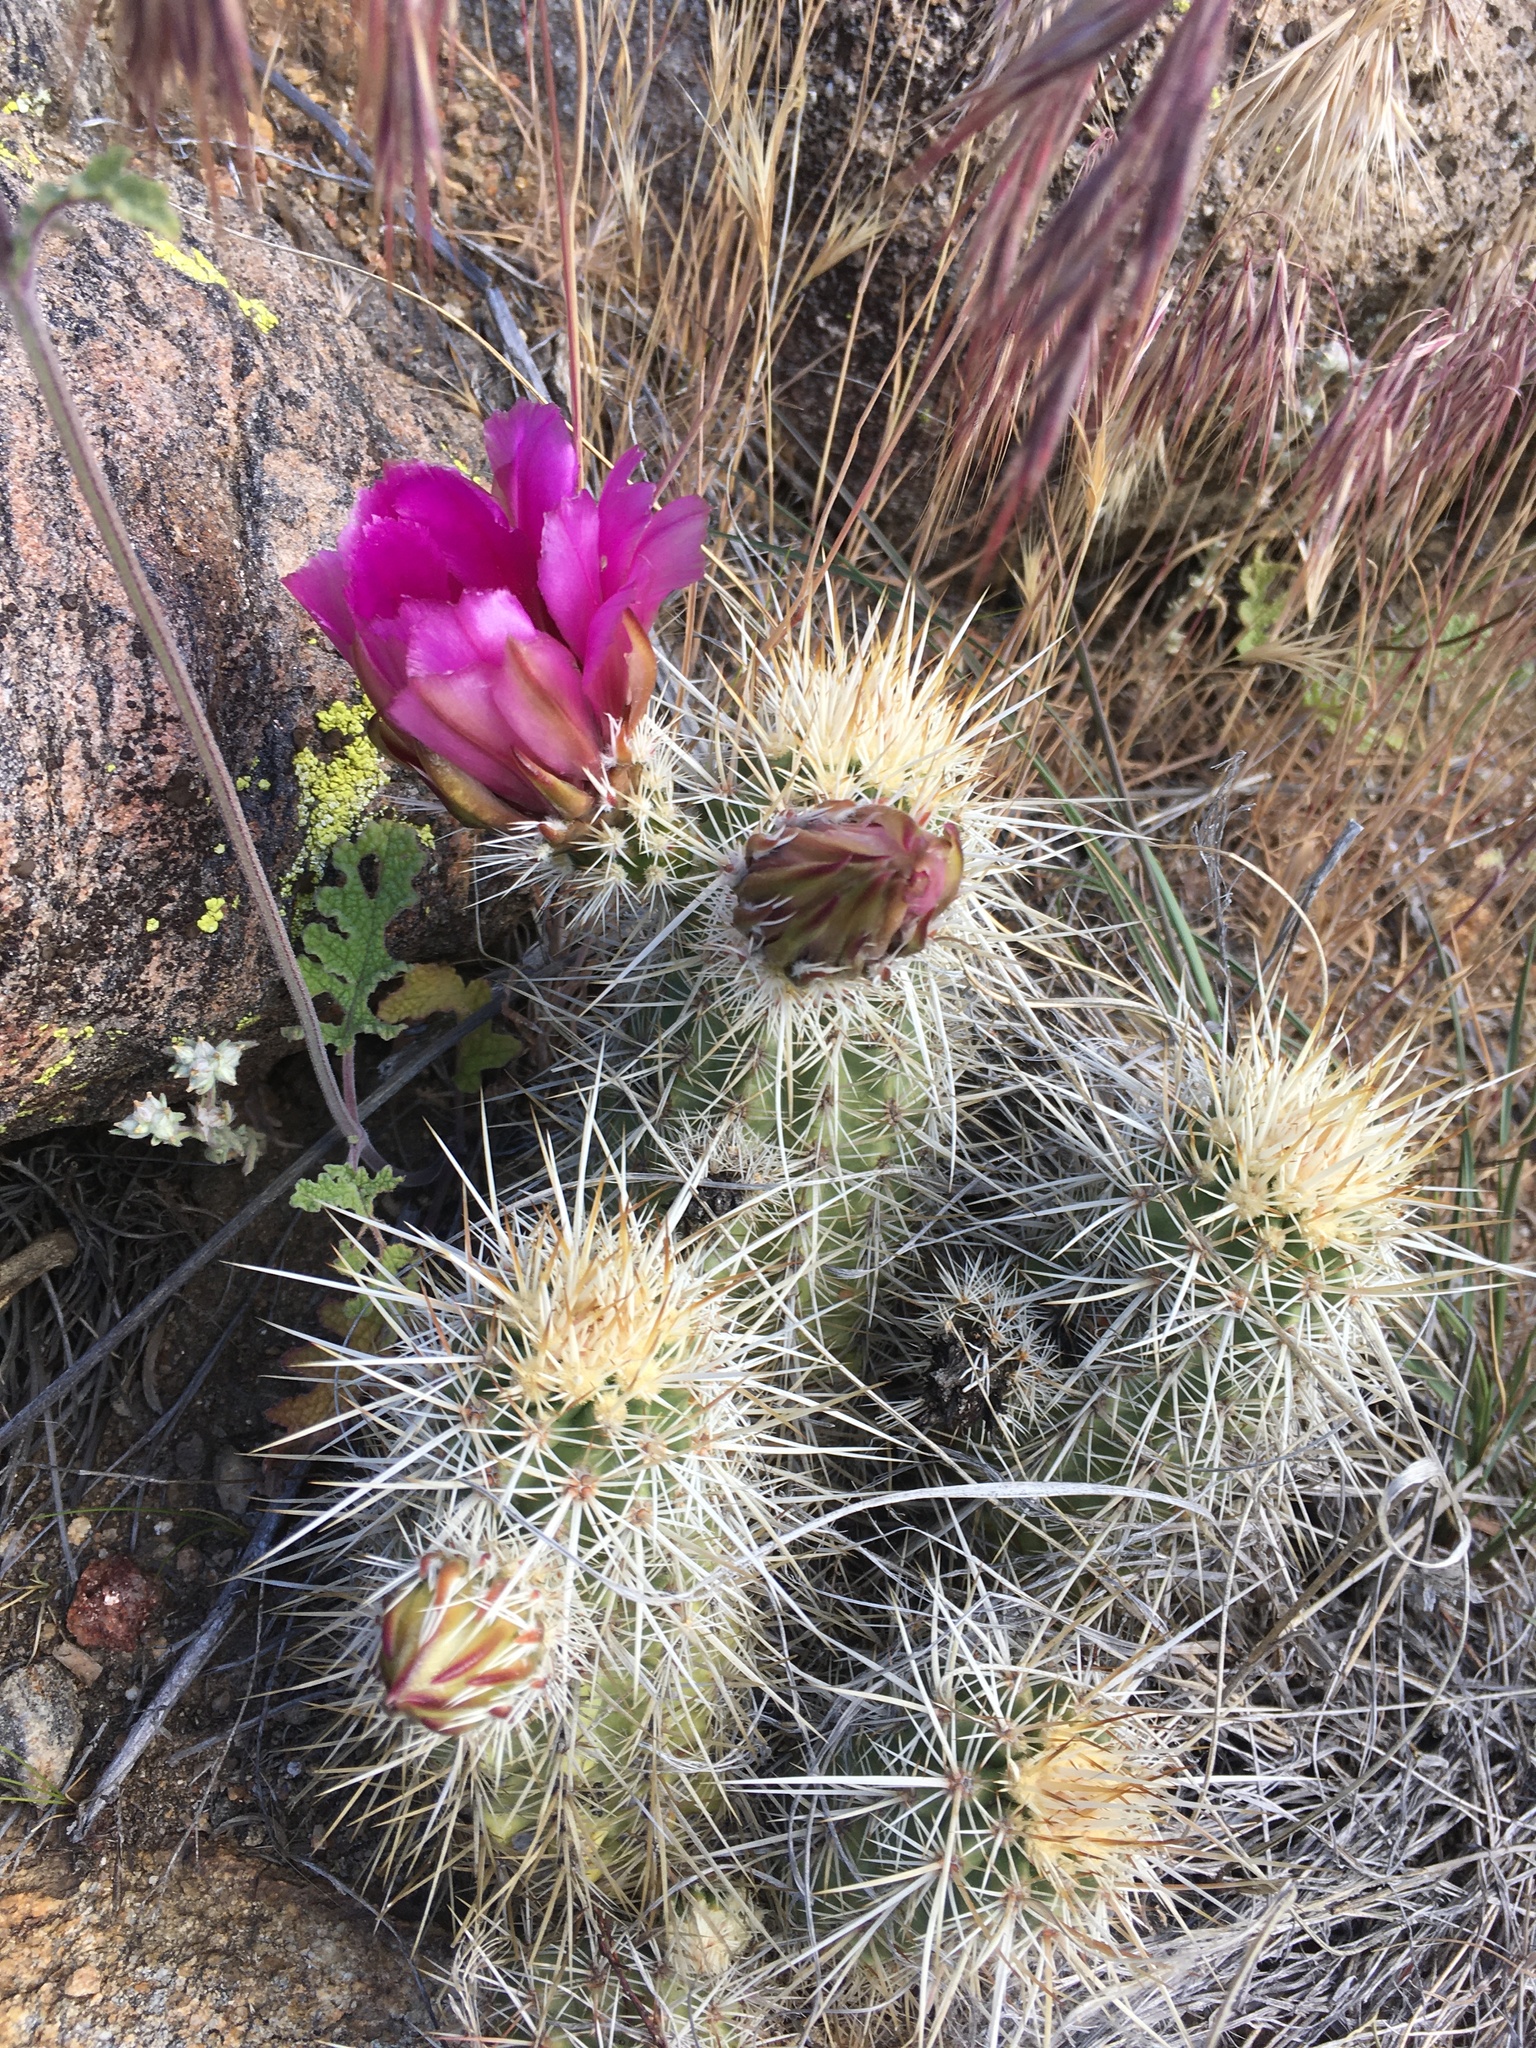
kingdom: Plantae
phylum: Tracheophyta
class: Magnoliopsida
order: Caryophyllales
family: Cactaceae
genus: Echinocereus
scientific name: Echinocereus engelmannii
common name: Engelmann's hedgehog cactus
